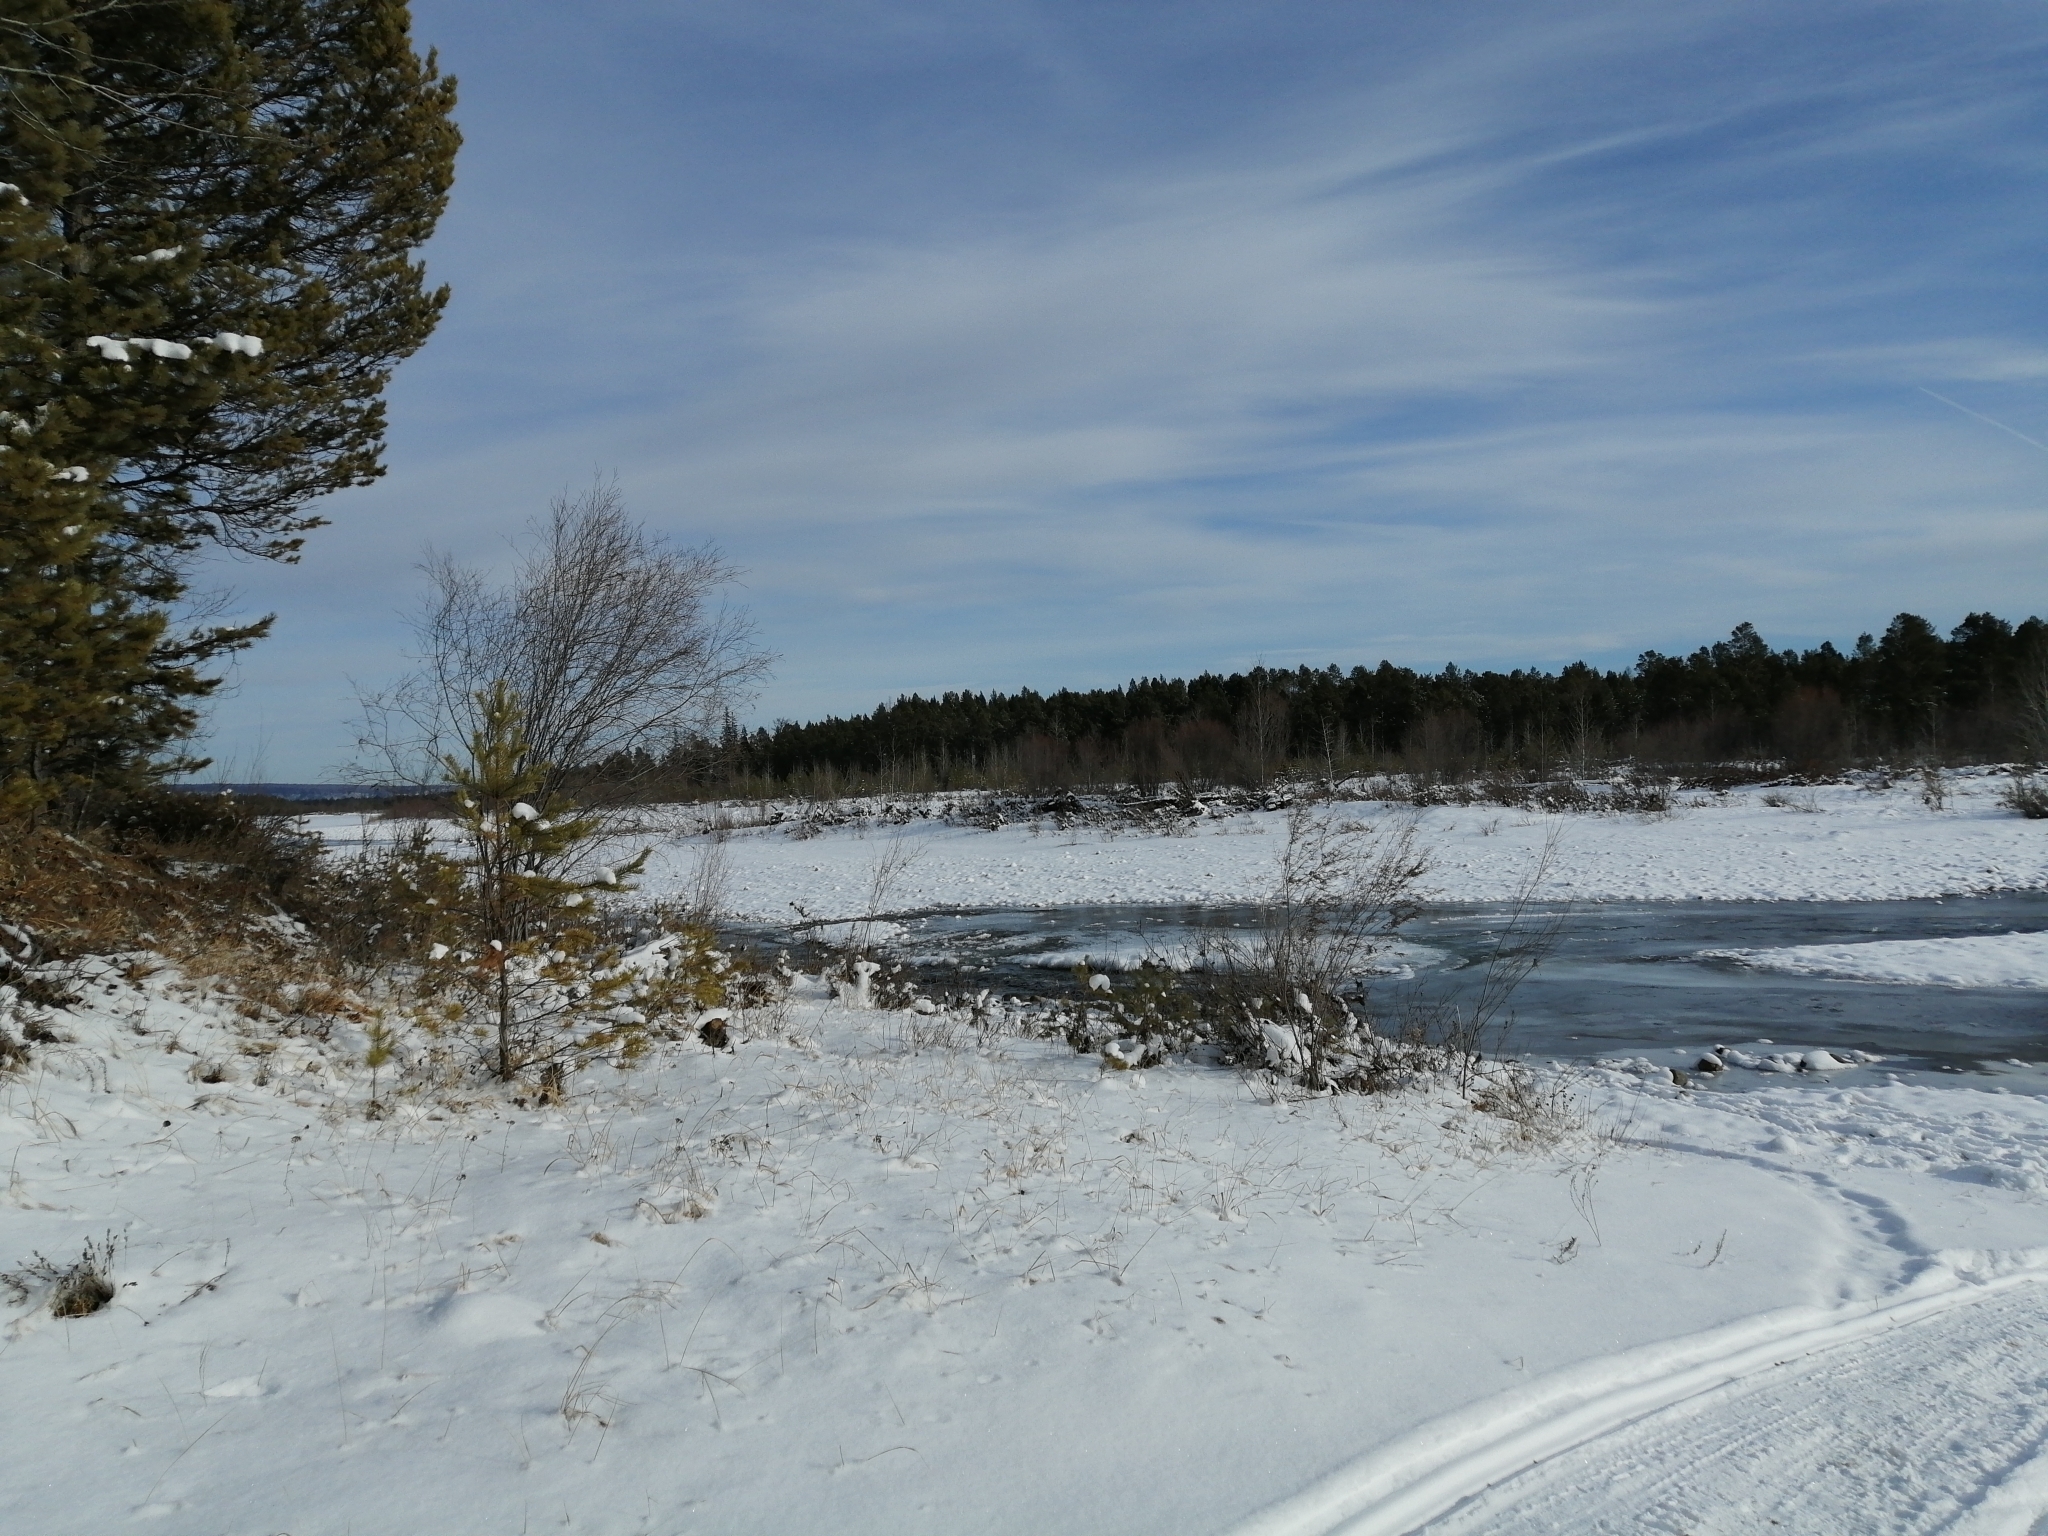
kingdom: Plantae
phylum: Tracheophyta
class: Pinopsida
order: Pinales
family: Pinaceae
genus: Pinus
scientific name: Pinus sylvestris
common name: Scots pine
